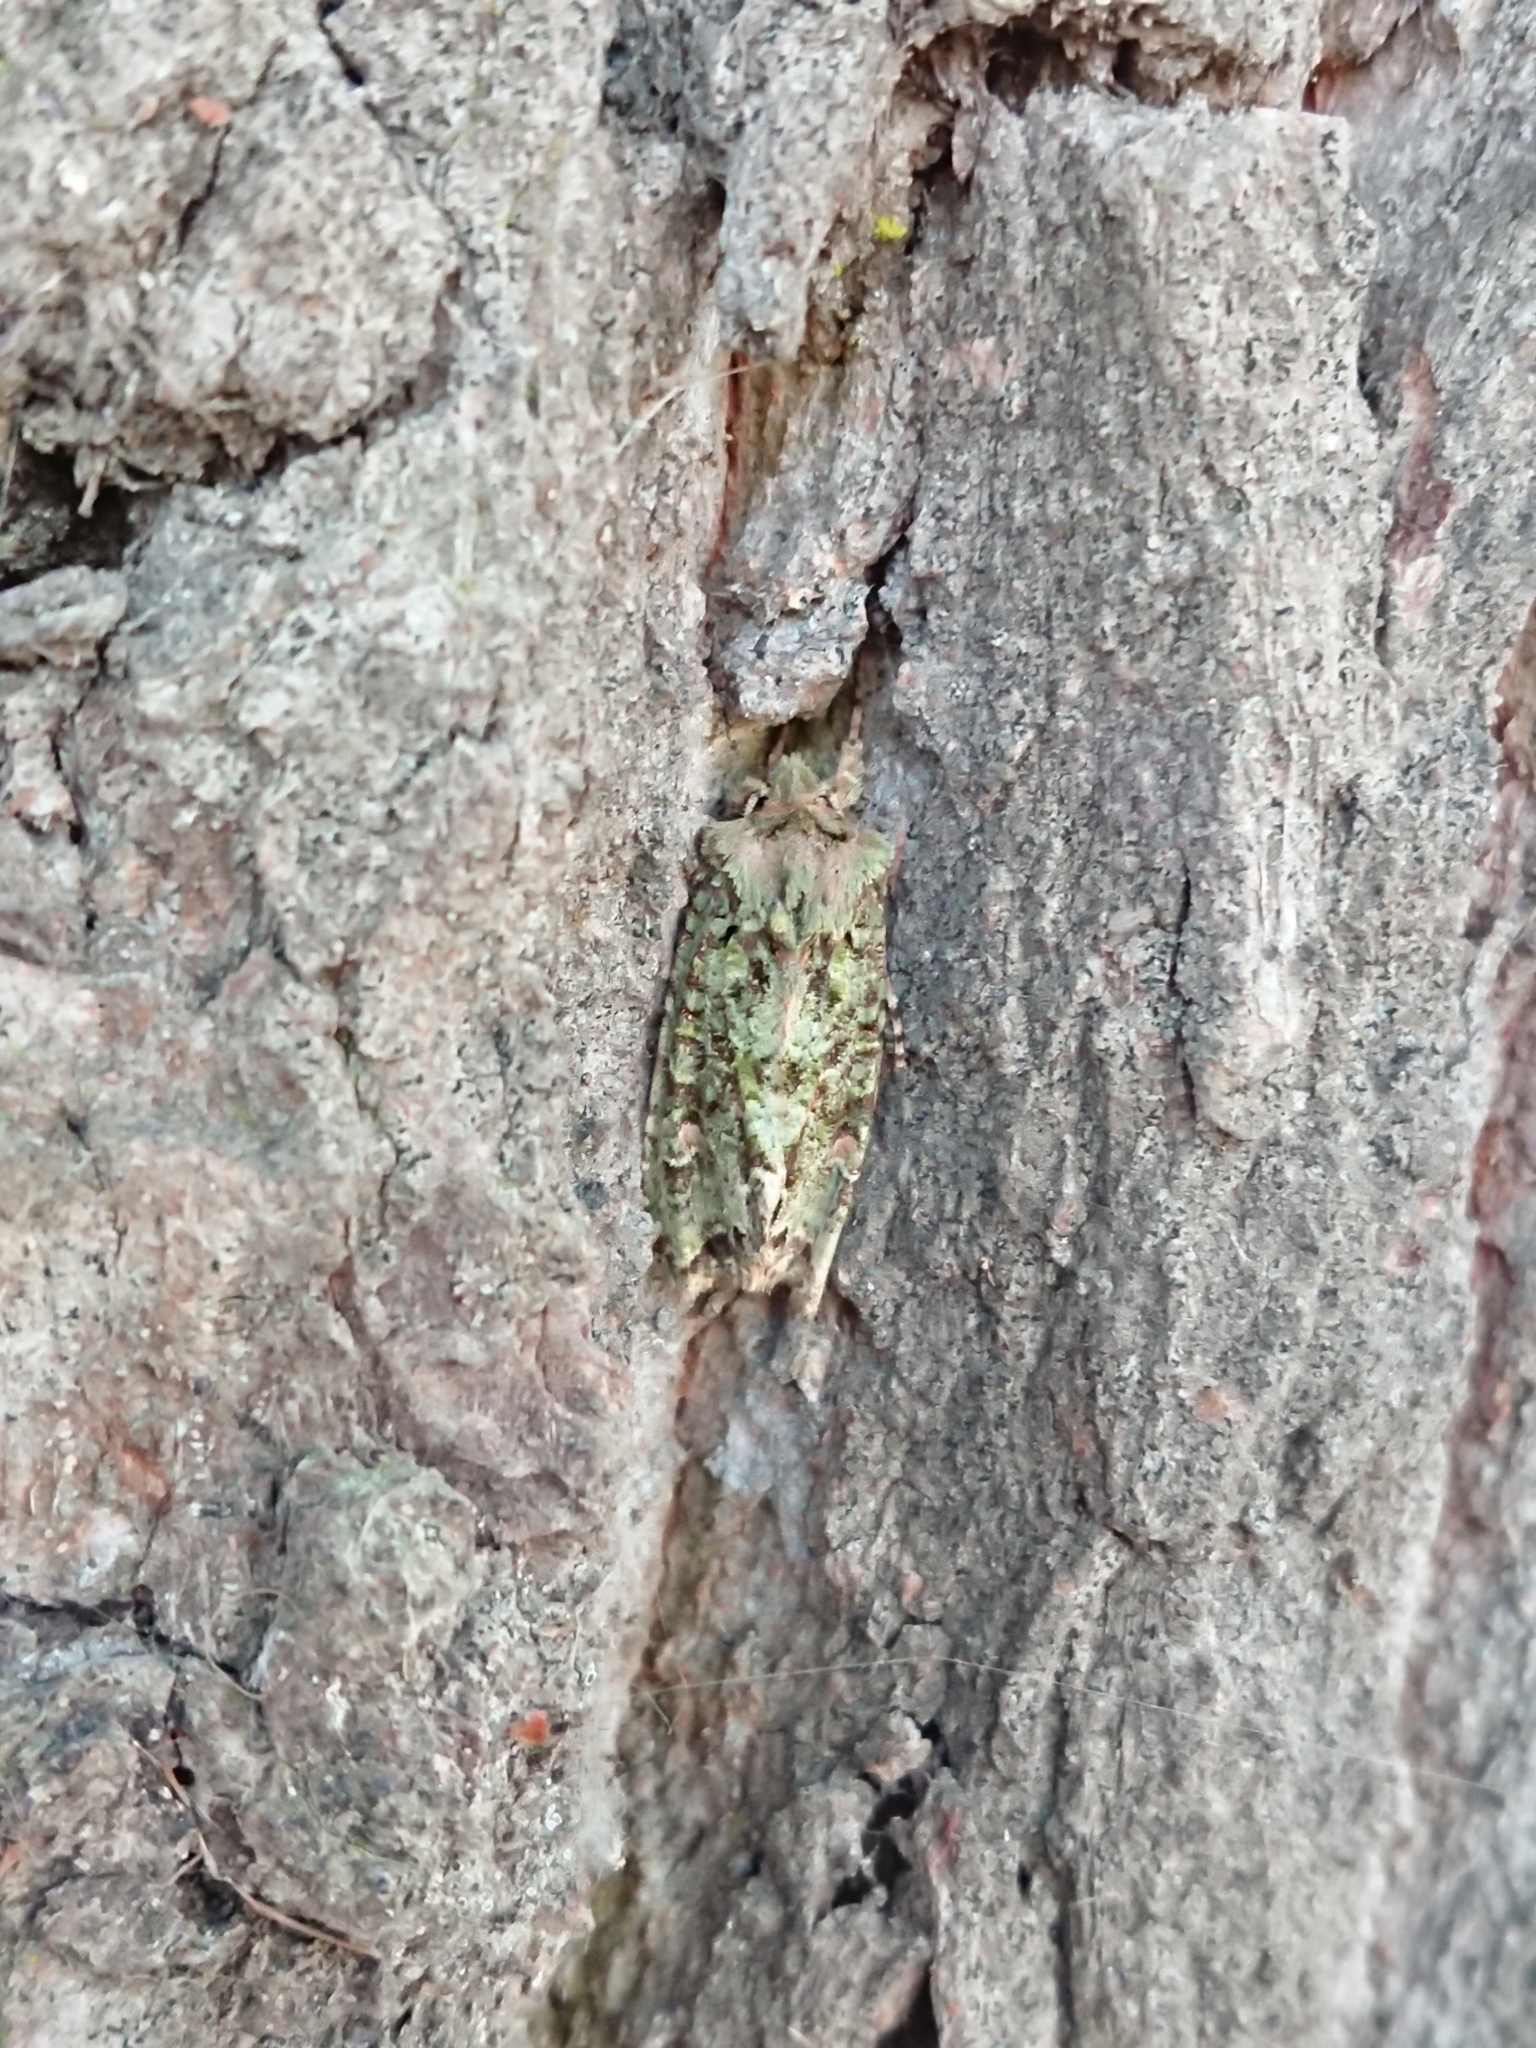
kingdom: Animalia
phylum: Arthropoda
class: Insecta
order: Lepidoptera
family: Noctuidae
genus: Ichneutica
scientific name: Ichneutica
